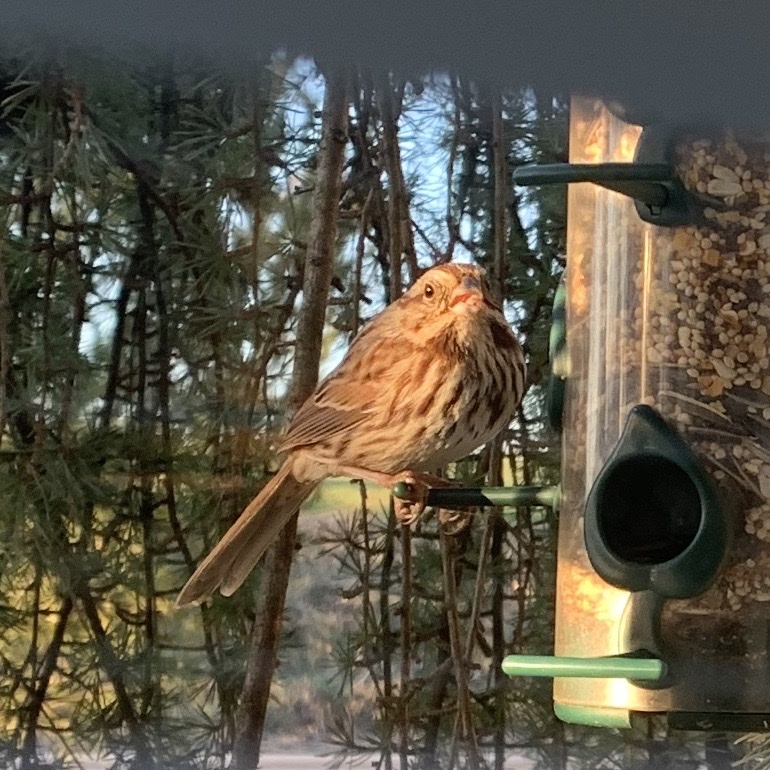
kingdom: Animalia
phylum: Chordata
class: Aves
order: Passeriformes
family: Passerellidae
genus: Melospiza
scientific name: Melospiza melodia
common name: Song sparrow
